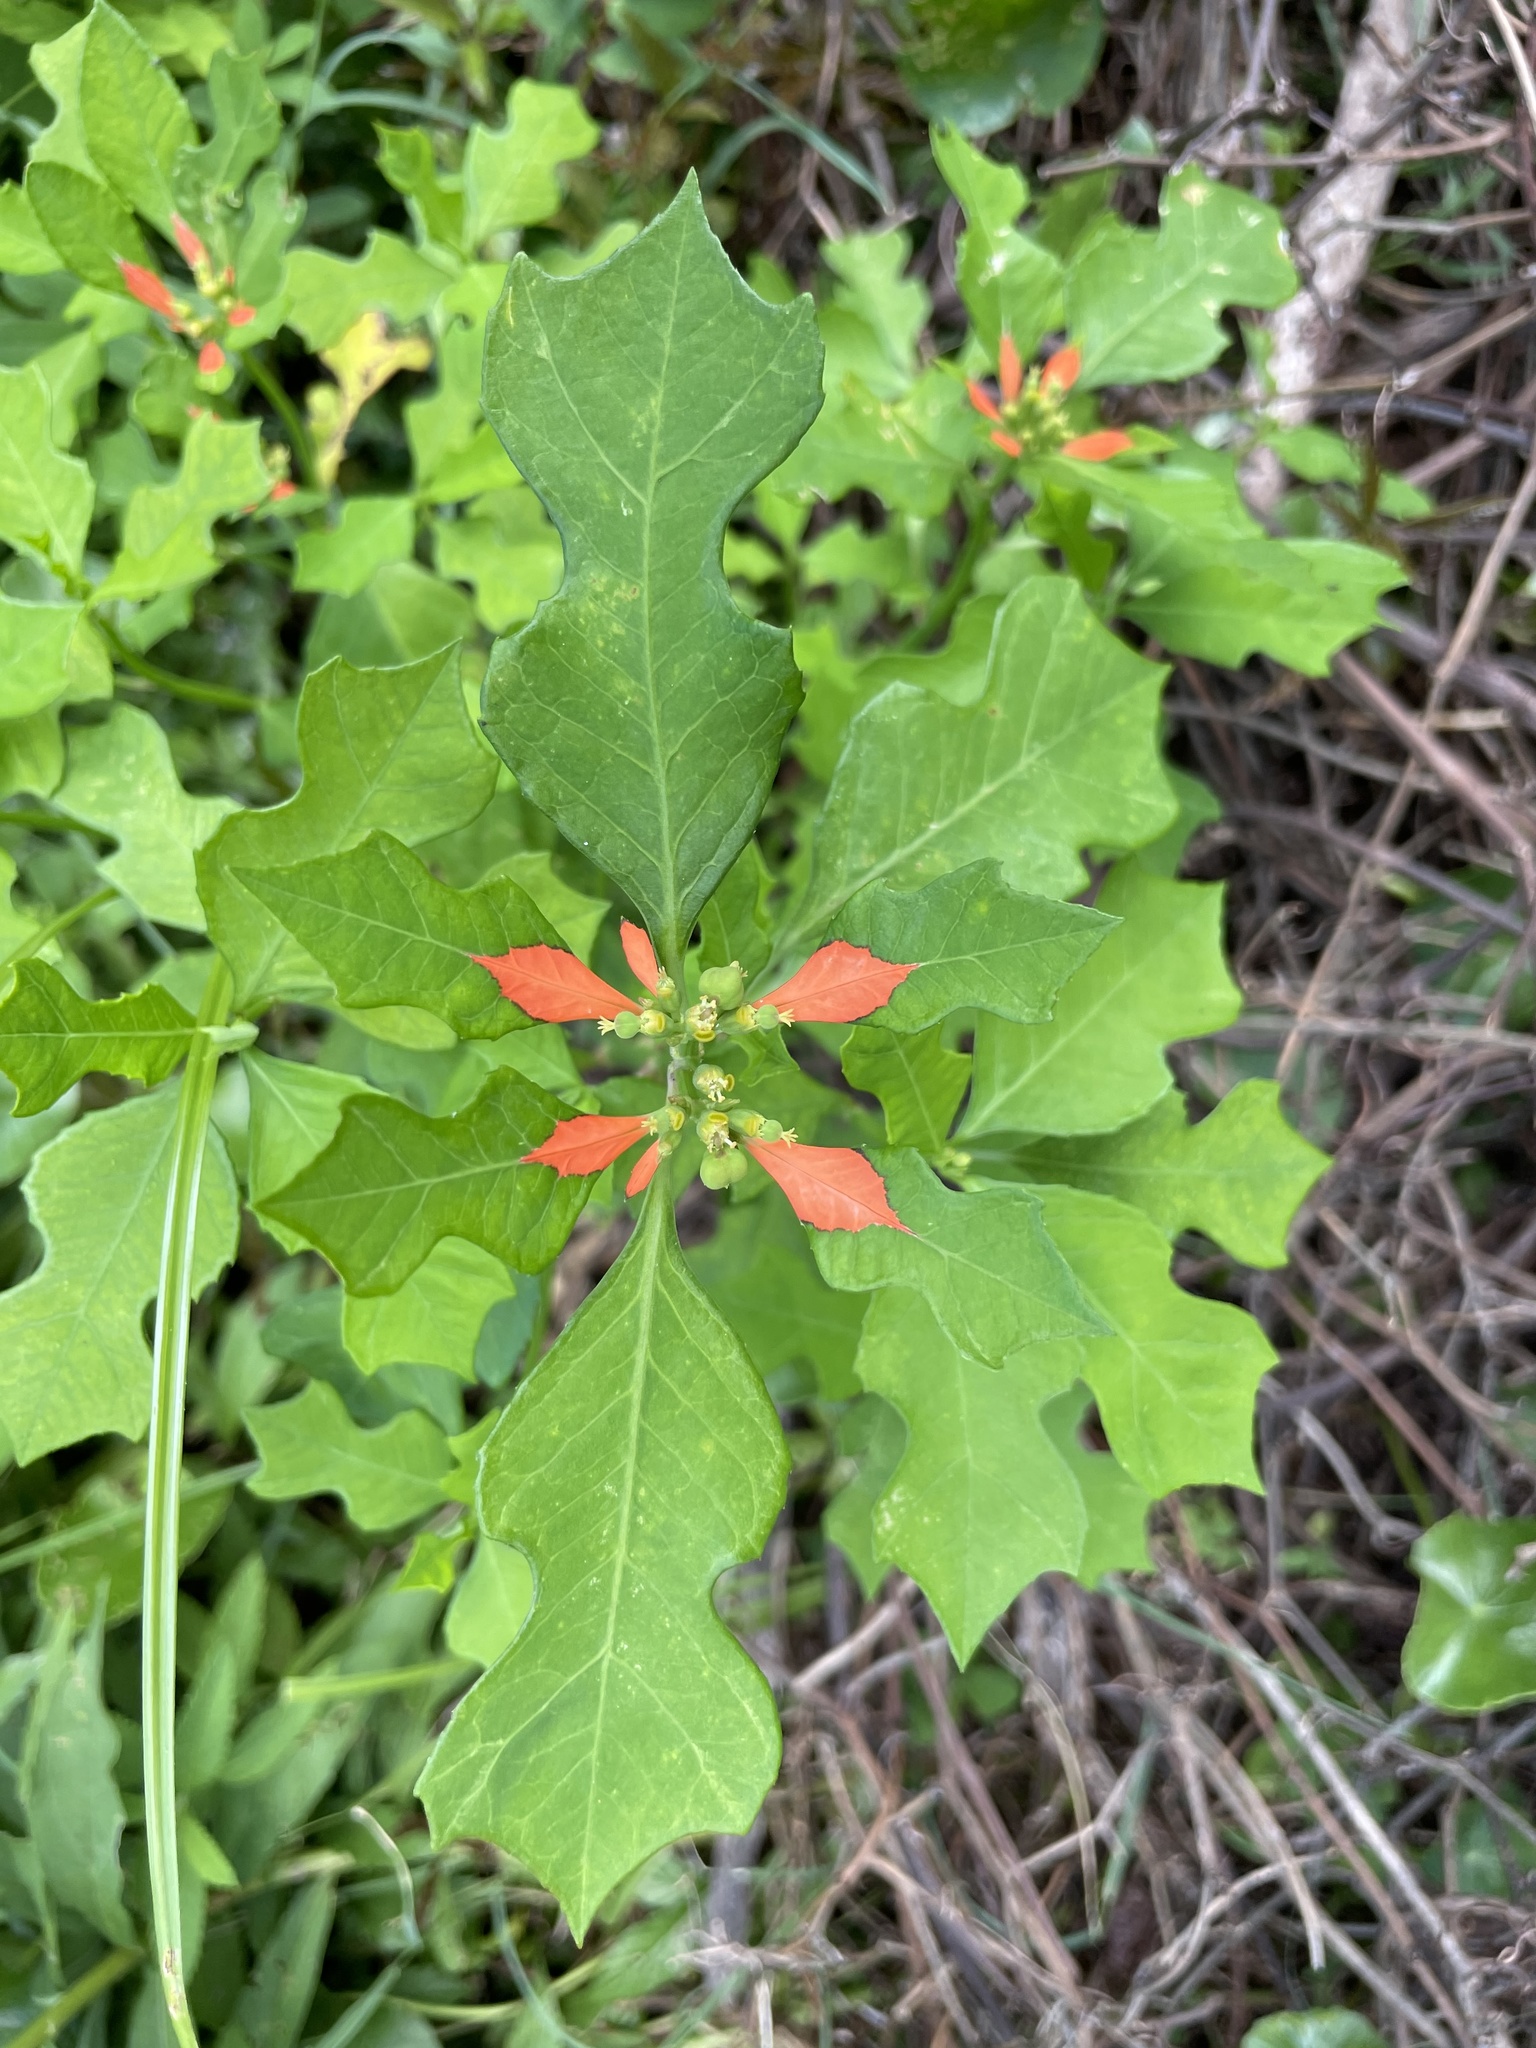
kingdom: Plantae
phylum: Tracheophyta
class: Magnoliopsida
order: Malpighiales
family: Euphorbiaceae
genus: Euphorbia
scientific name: Euphorbia heterophylla
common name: Mexican fireplant
